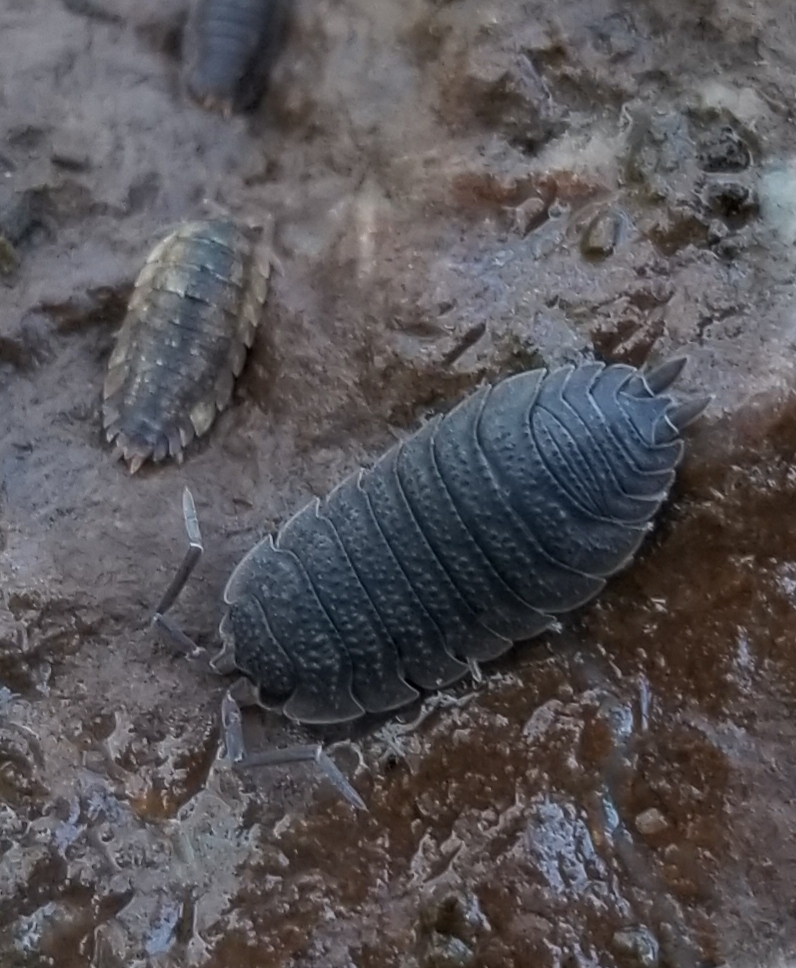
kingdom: Animalia
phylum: Arthropoda
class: Malacostraca
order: Isopoda
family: Porcellionidae
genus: Porcellio
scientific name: Porcellio scaber
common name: Common rough woodlouse
